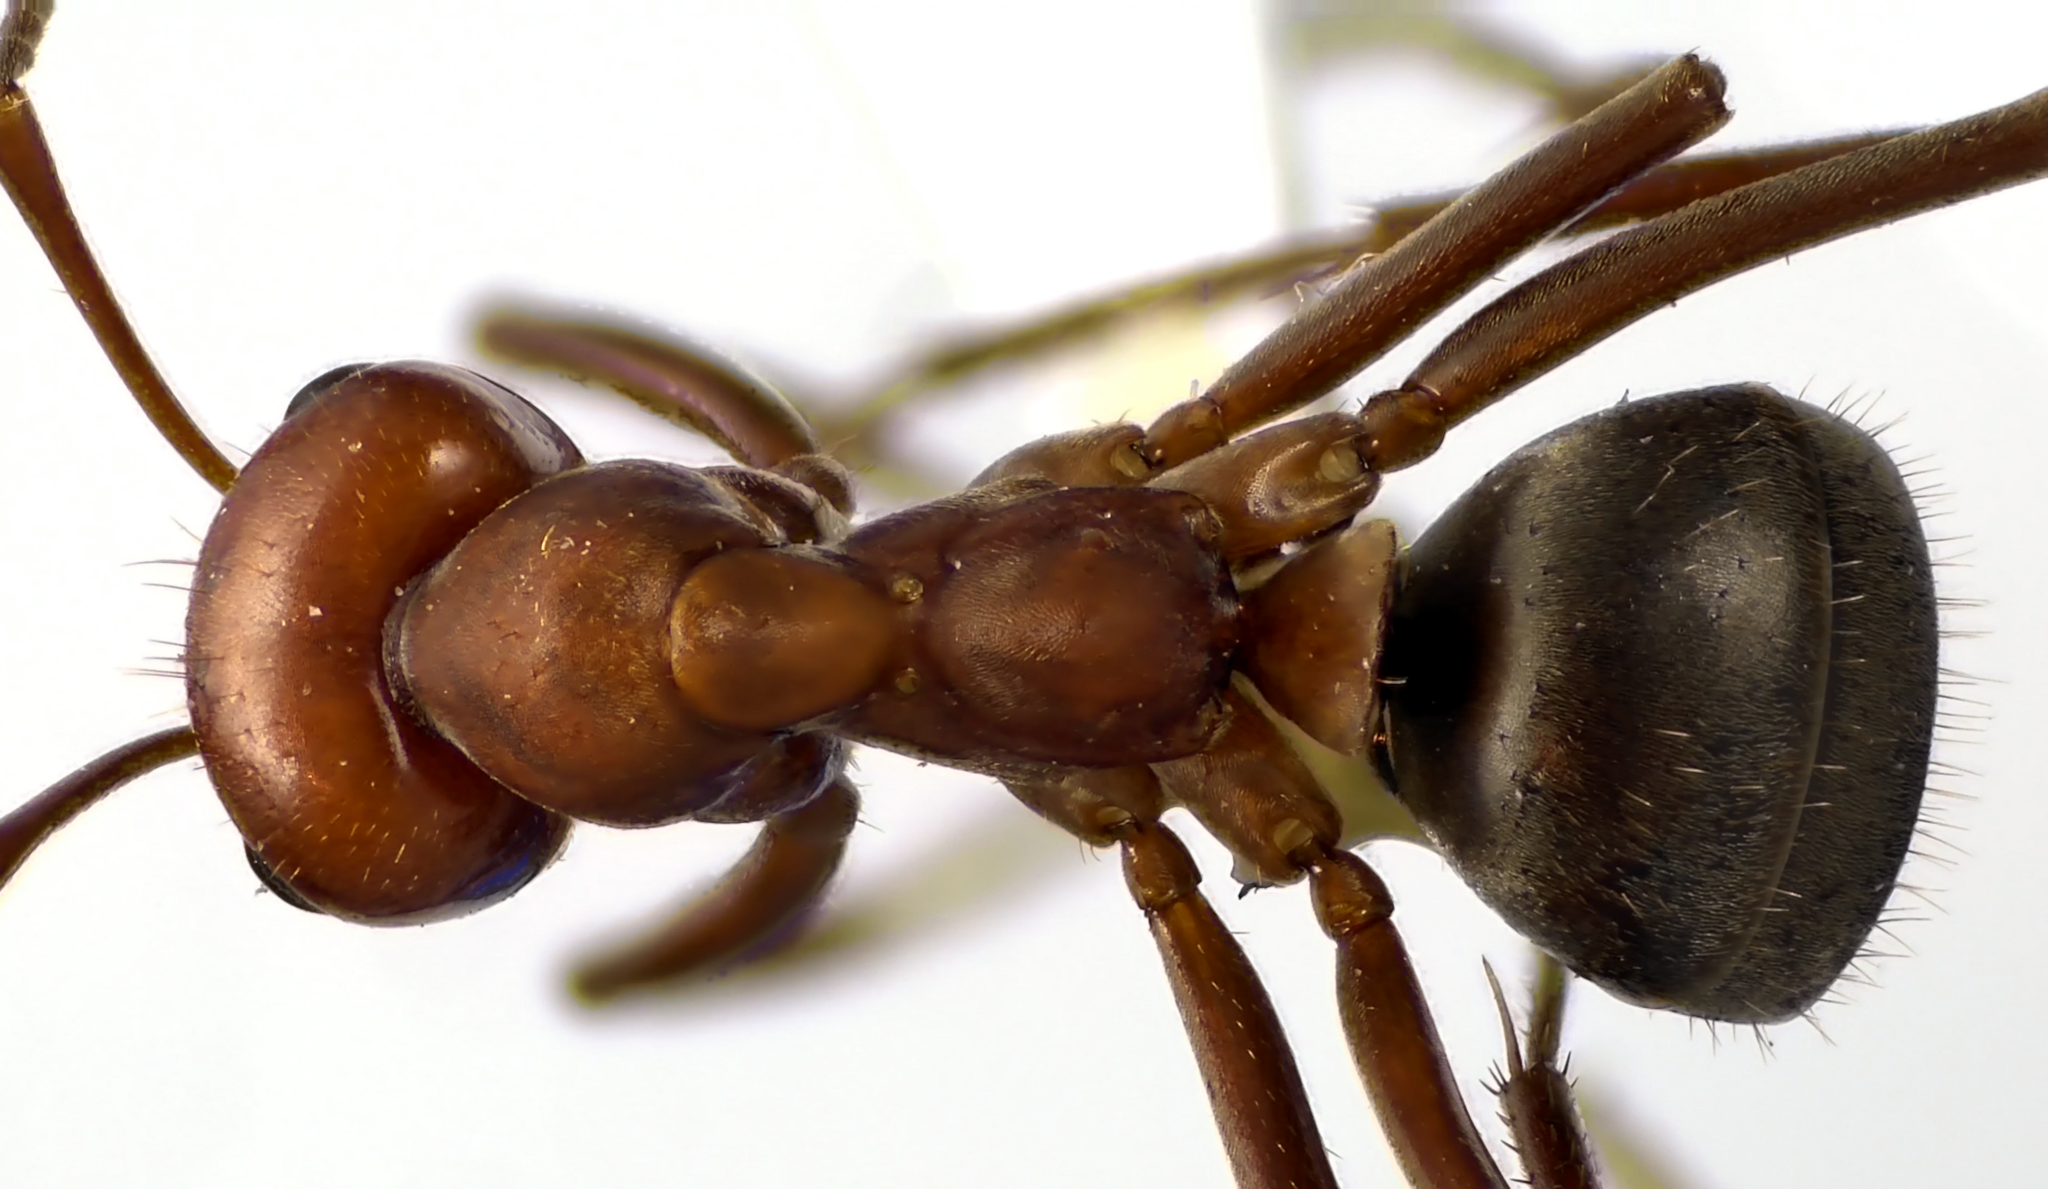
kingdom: Animalia
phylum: Arthropoda
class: Insecta
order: Hymenoptera
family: Formicidae
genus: Formica
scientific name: Formica pergandei
